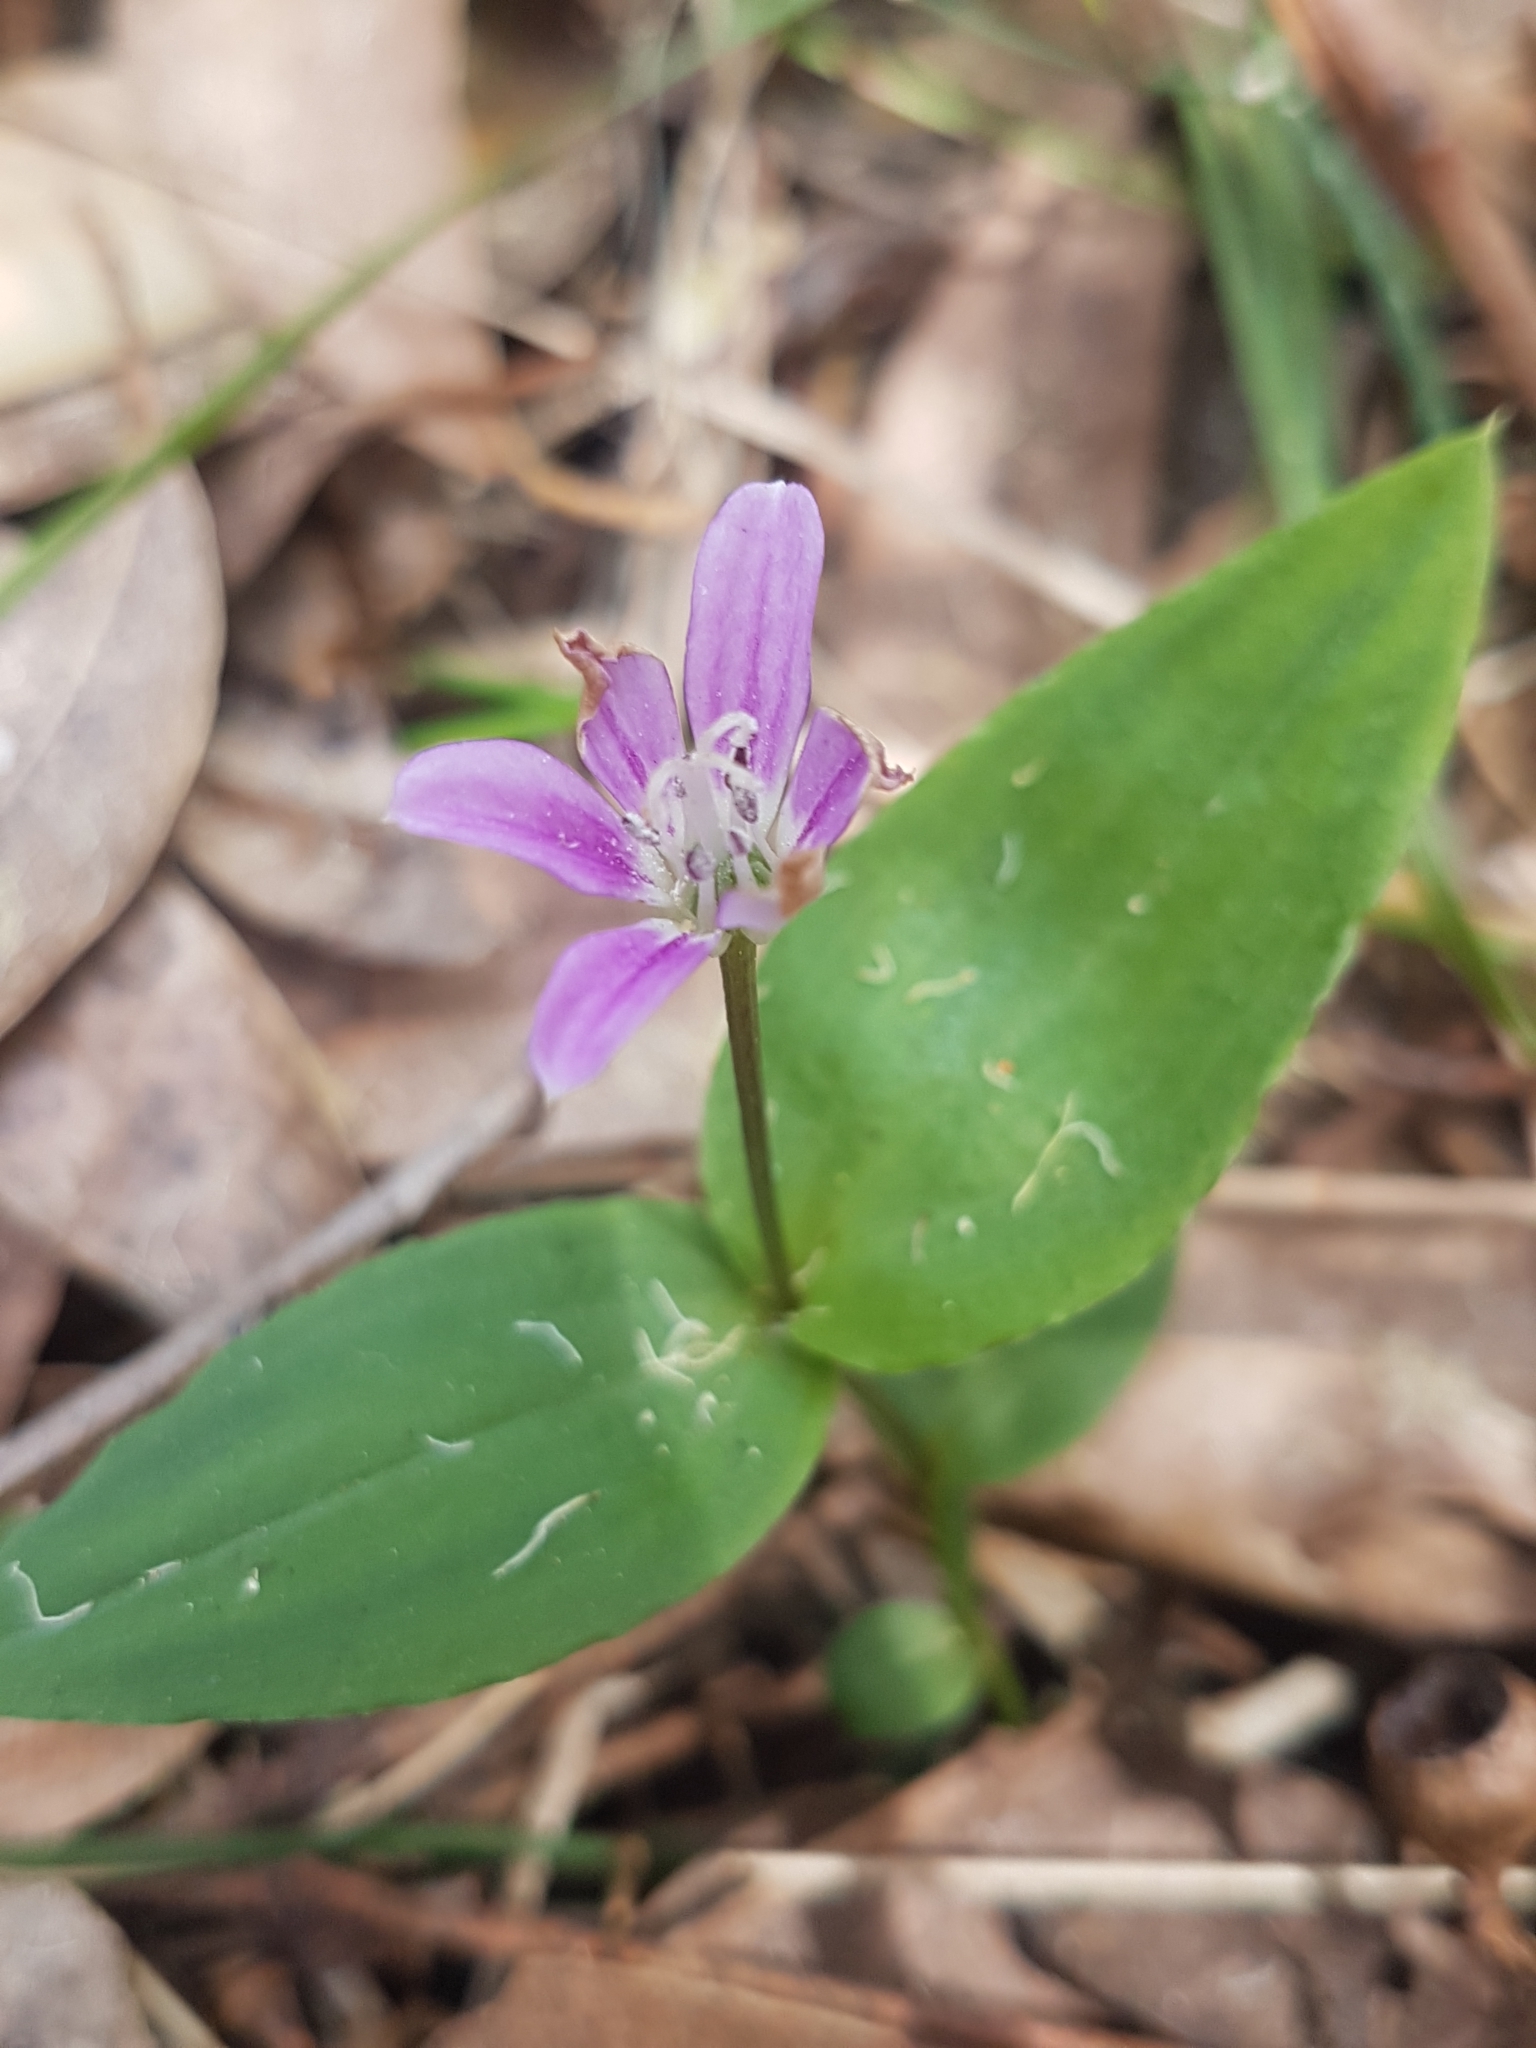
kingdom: Plantae
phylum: Tracheophyta
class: Liliopsida
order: Liliales
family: Colchicaceae
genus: Schelhammera
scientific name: Schelhammera undulata
